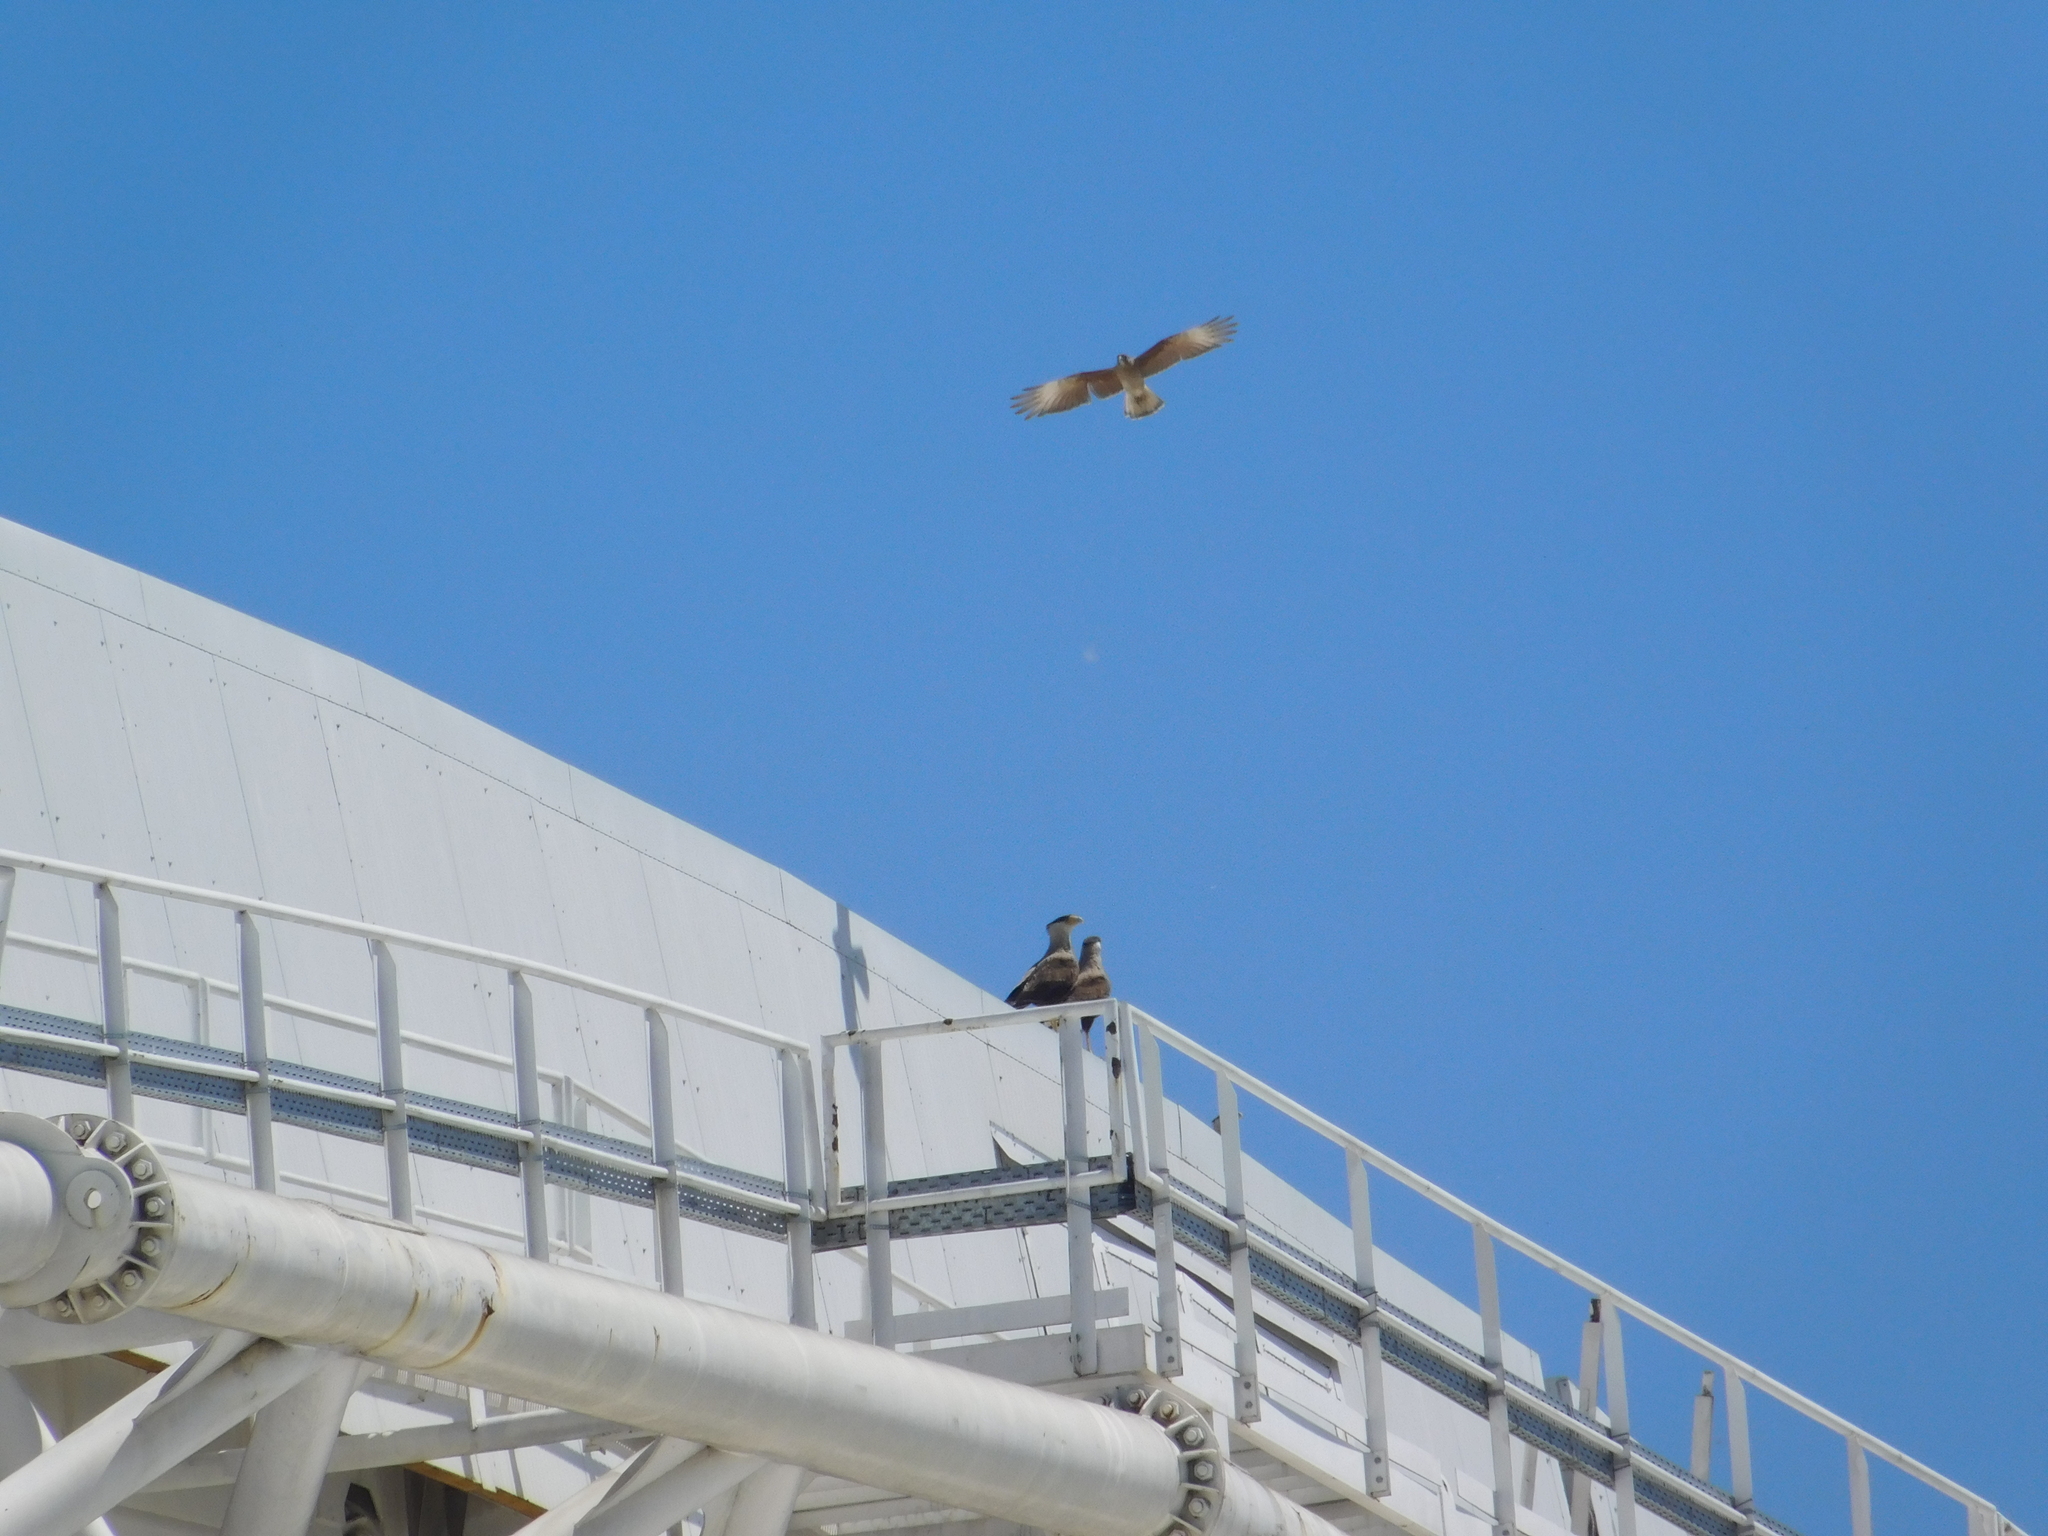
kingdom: Animalia
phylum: Chordata
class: Aves
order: Falconiformes
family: Falconidae
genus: Caracara
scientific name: Caracara plancus
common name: Southern caracara
